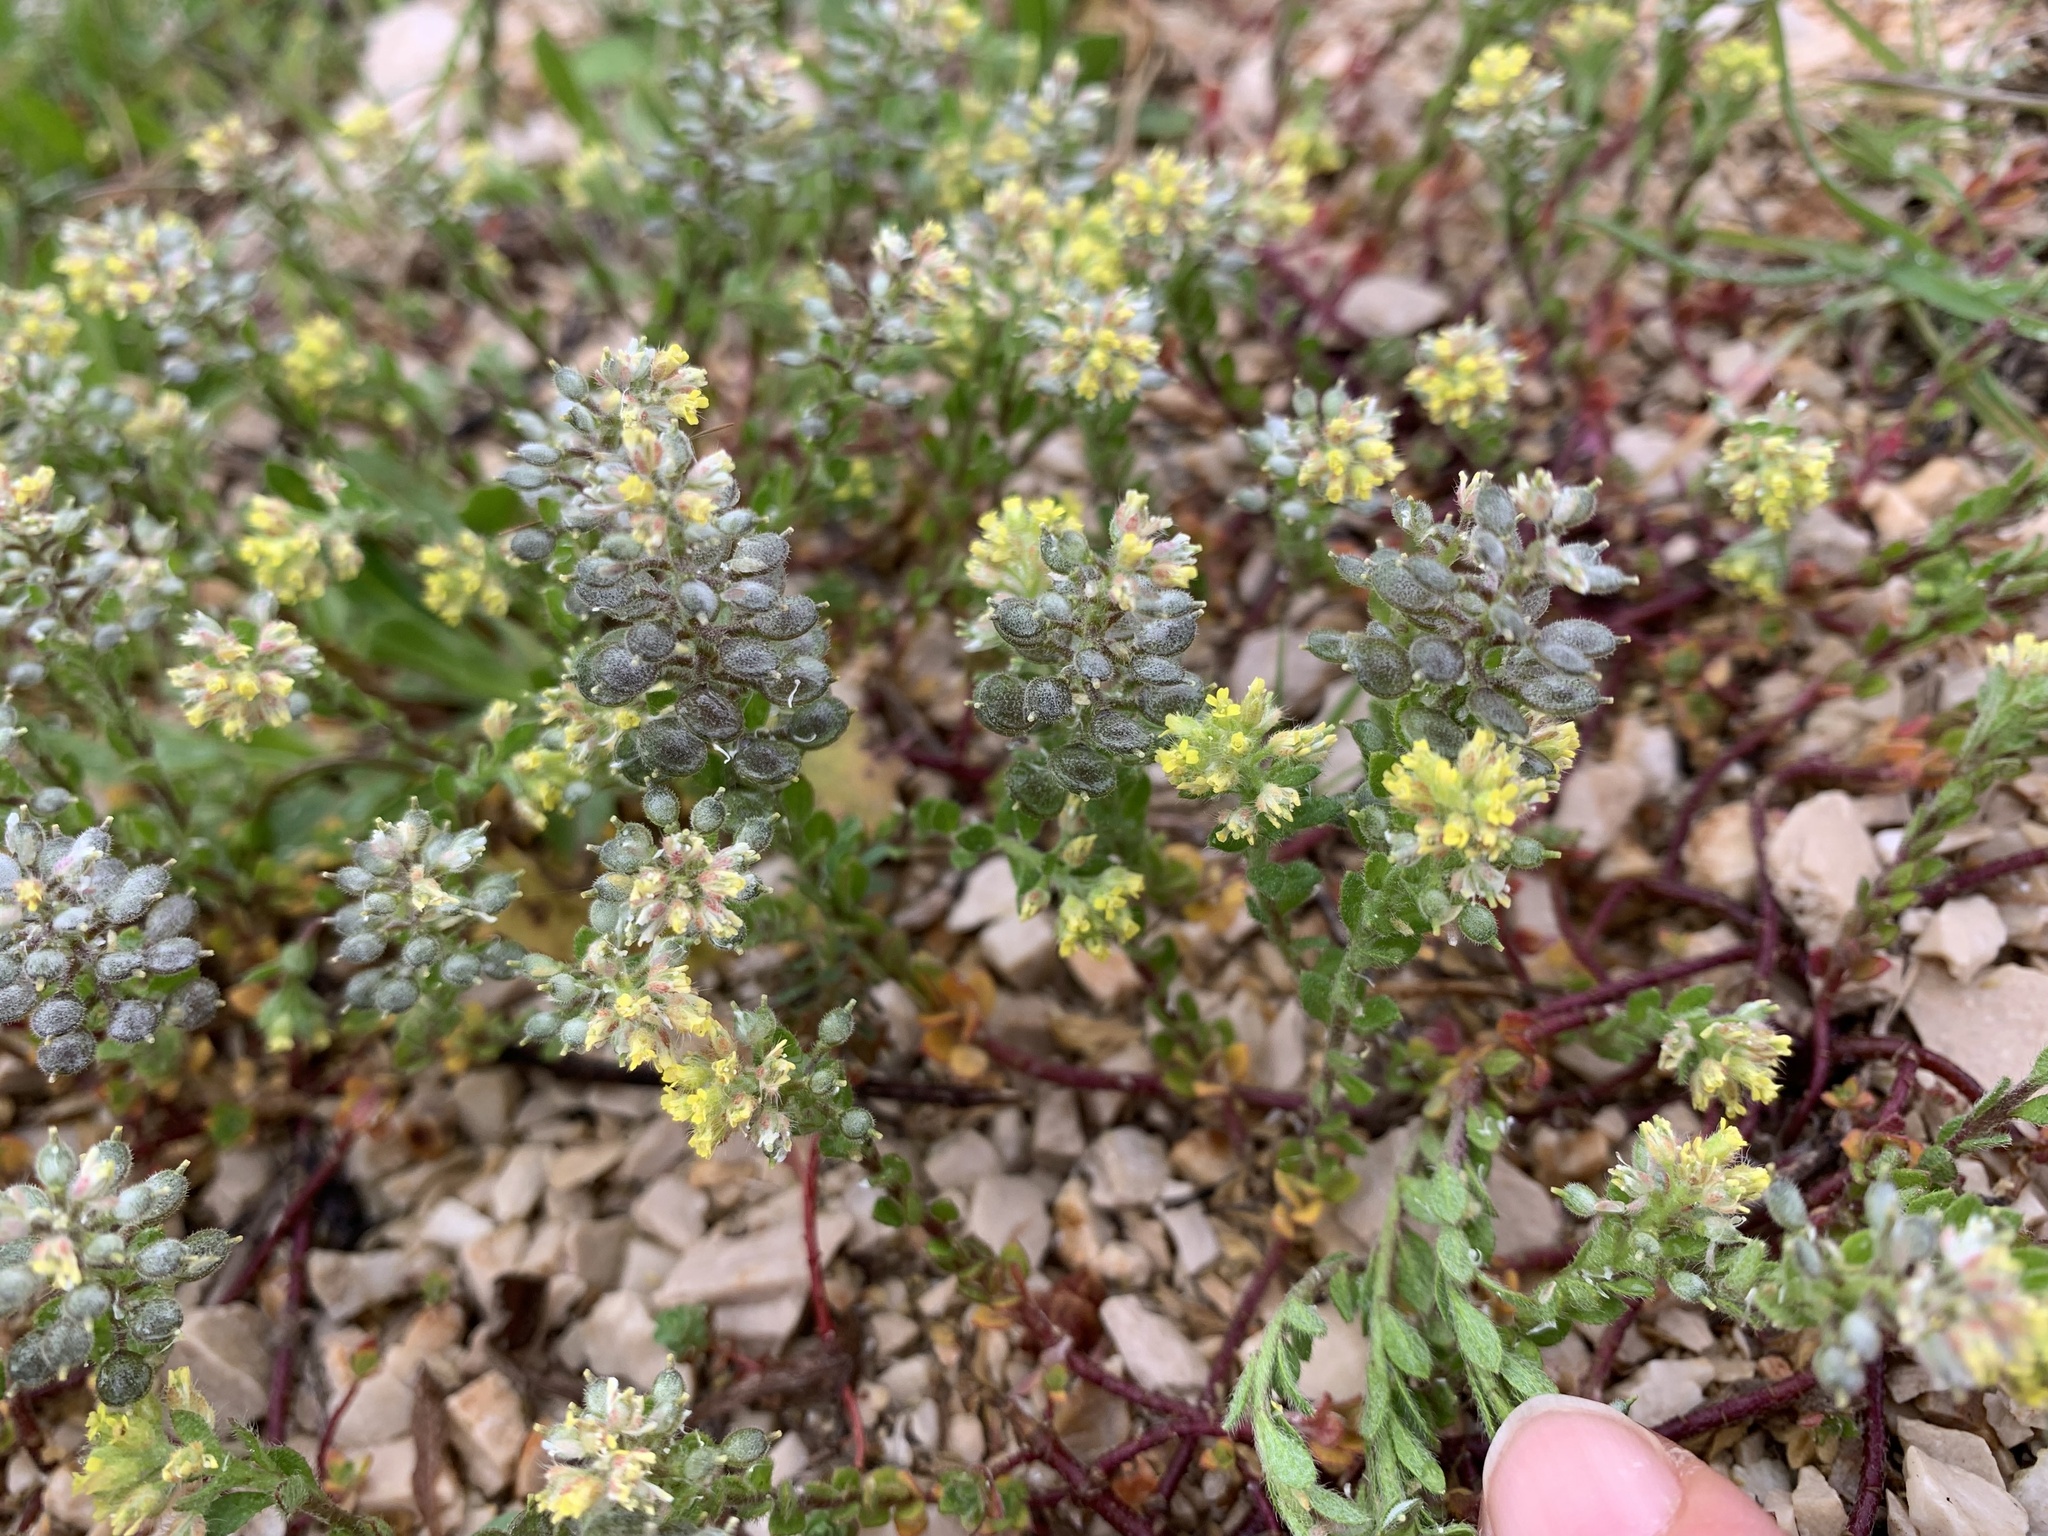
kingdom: Plantae
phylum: Tracheophyta
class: Magnoliopsida
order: Brassicales
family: Brassicaceae
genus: Alyssum
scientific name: Alyssum simplex
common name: Alyssum
